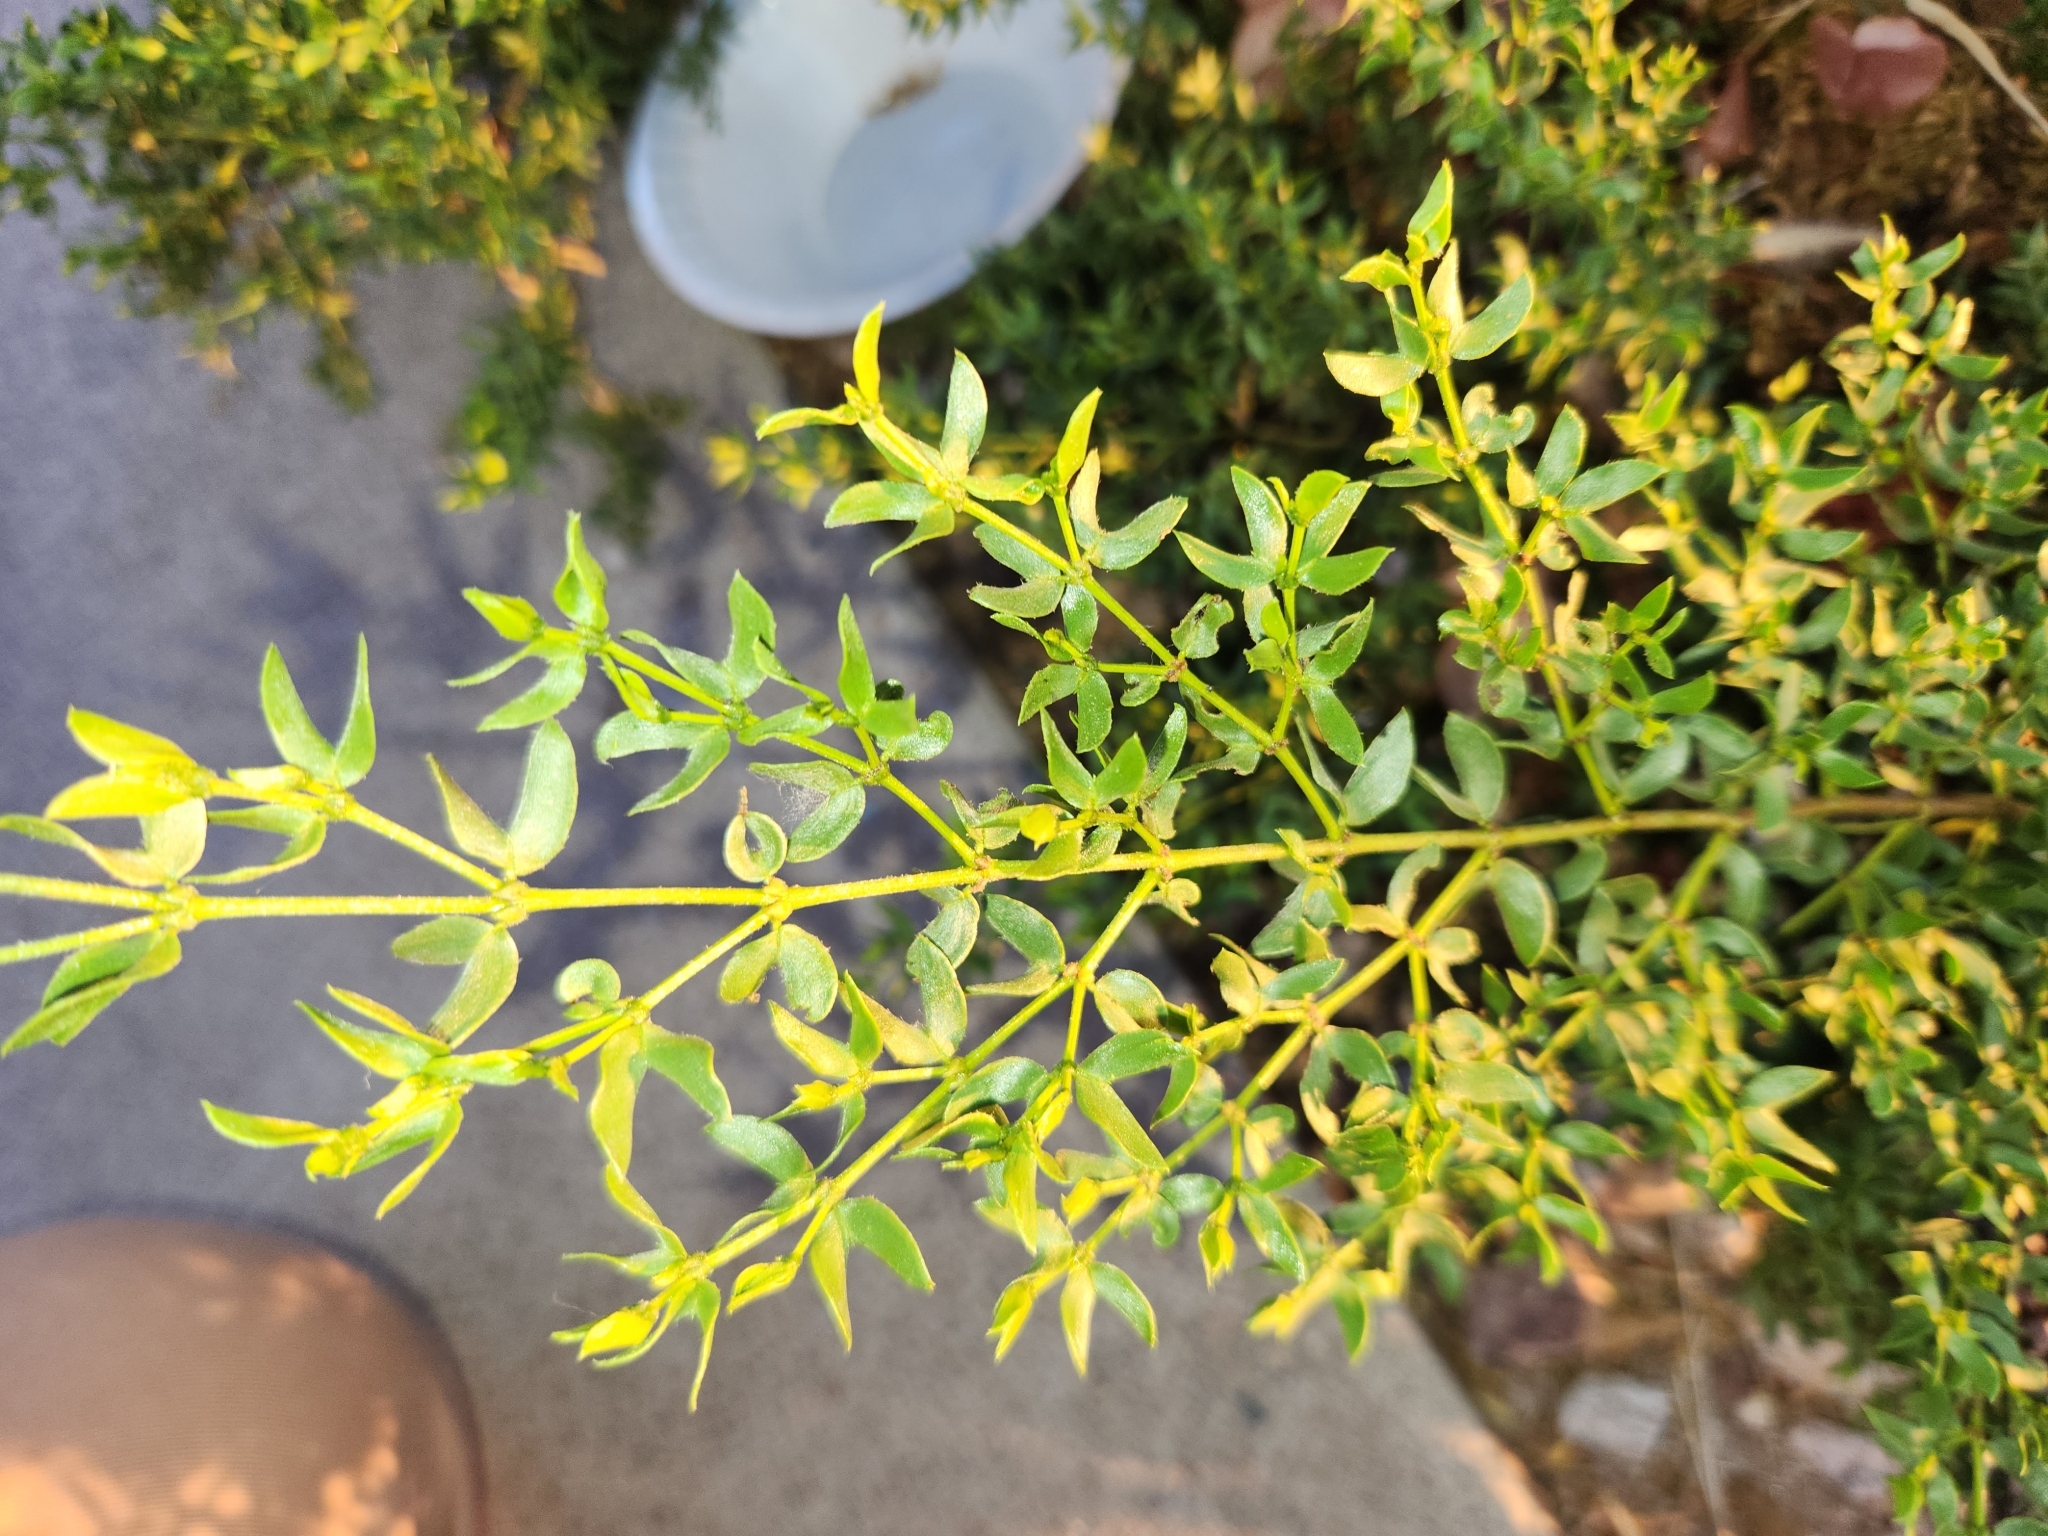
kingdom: Plantae
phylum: Tracheophyta
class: Magnoliopsida
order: Zygophyllales
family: Zygophyllaceae
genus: Larrea
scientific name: Larrea tridentata
